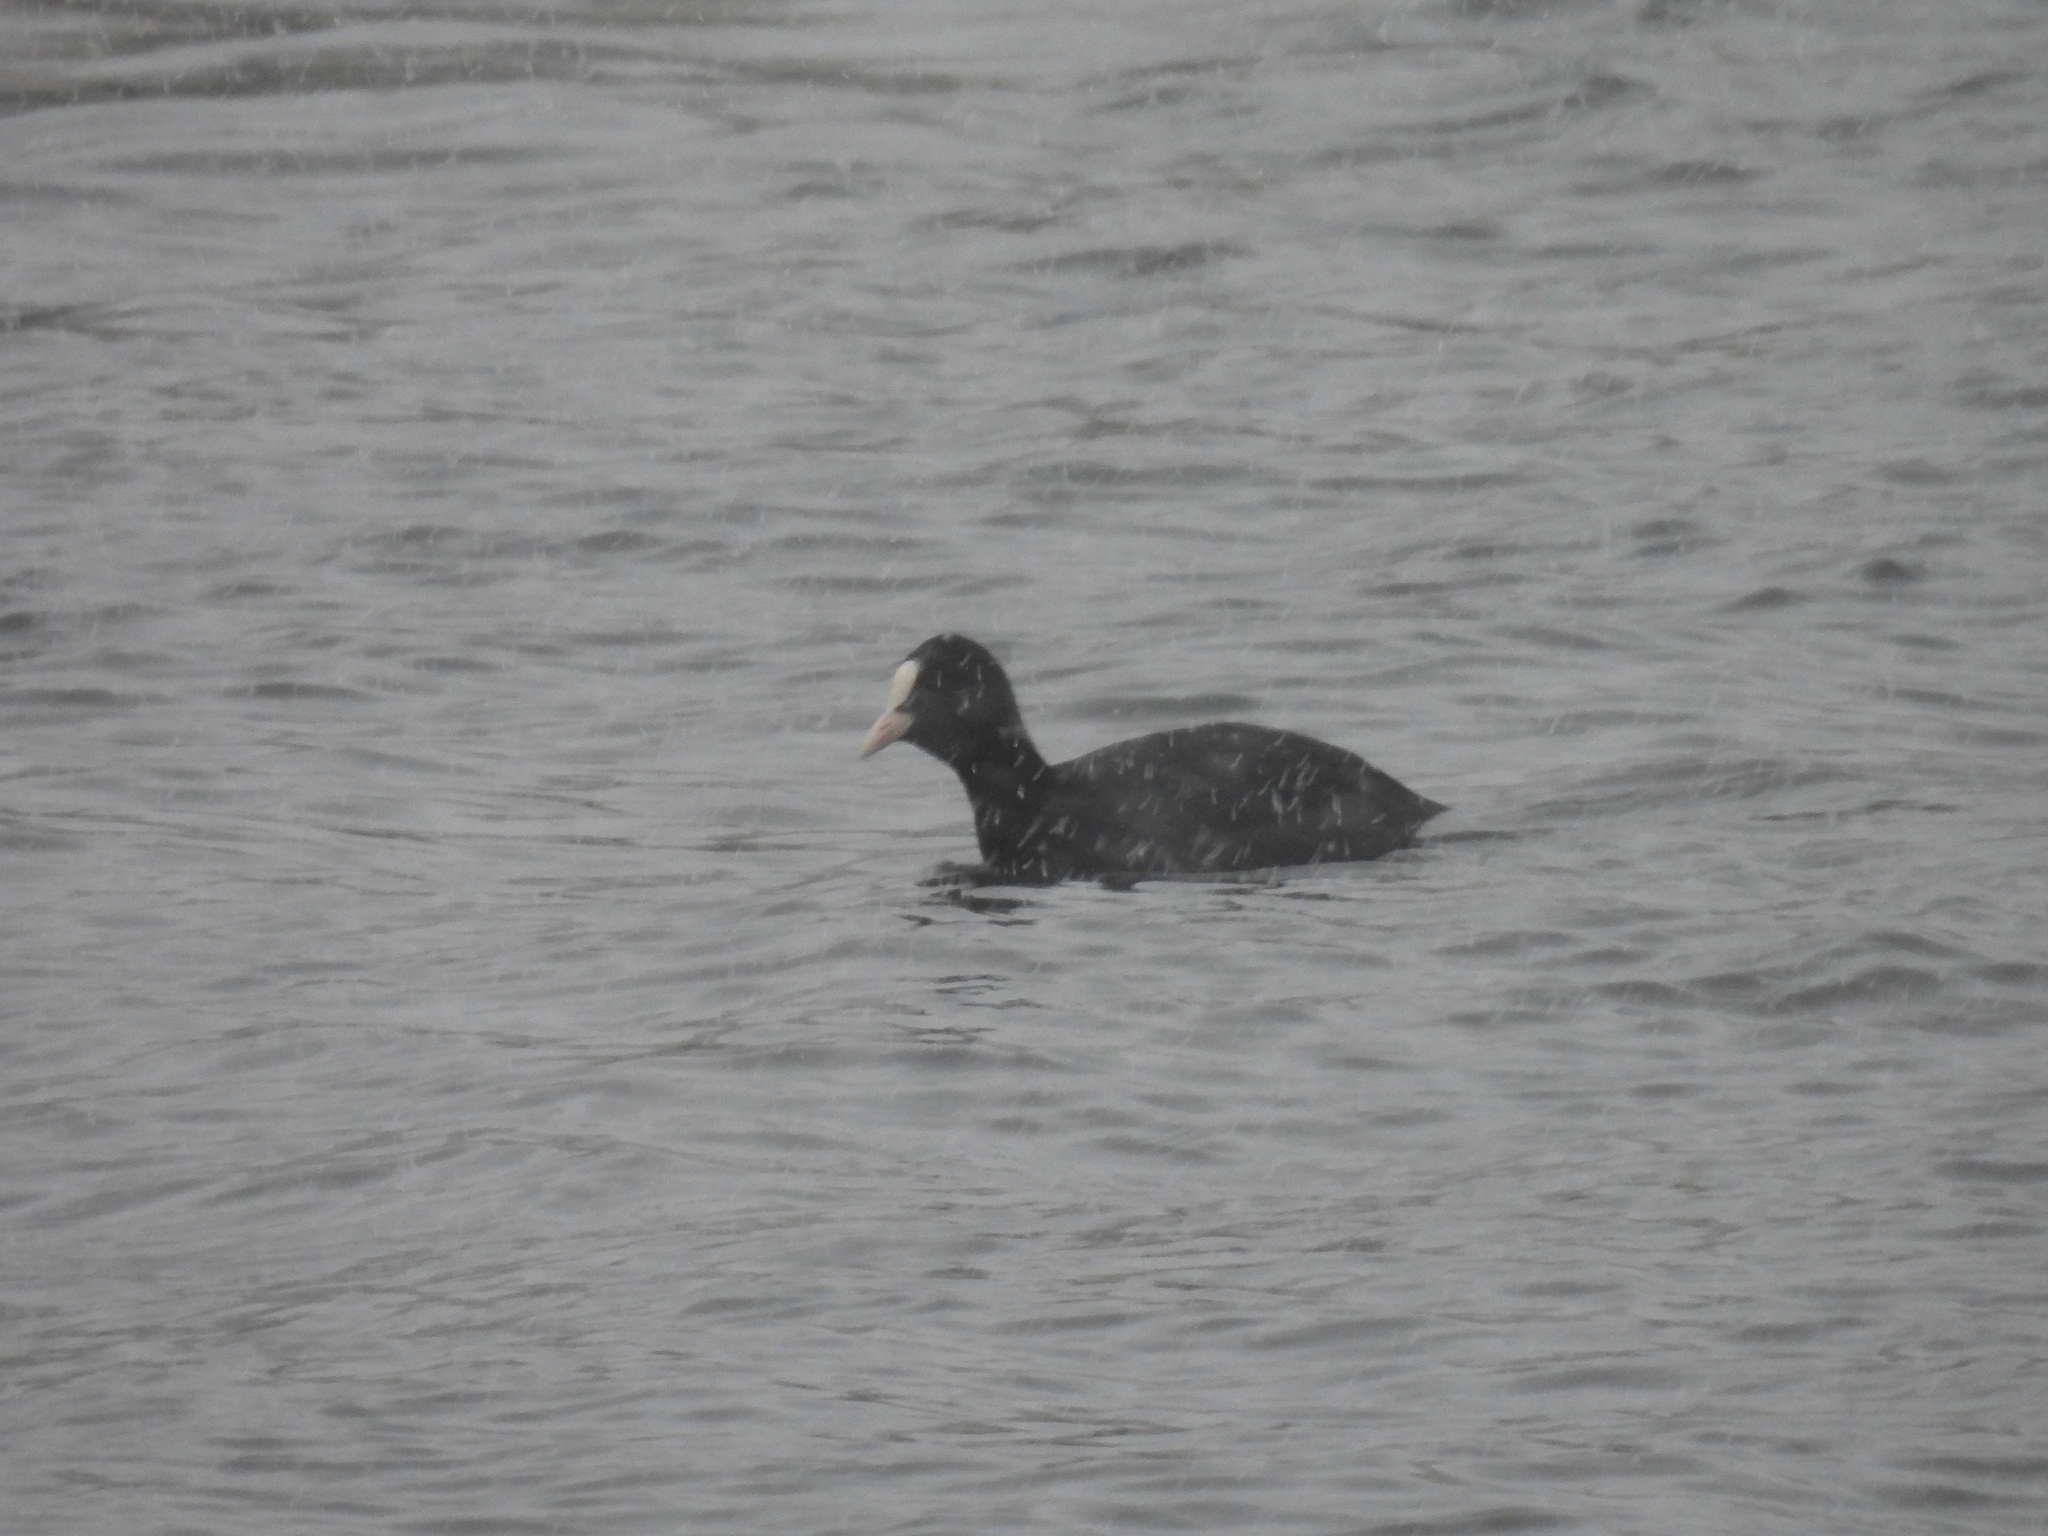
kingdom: Animalia
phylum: Chordata
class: Aves
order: Gruiformes
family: Rallidae
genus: Fulica
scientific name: Fulica atra
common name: Eurasian coot
